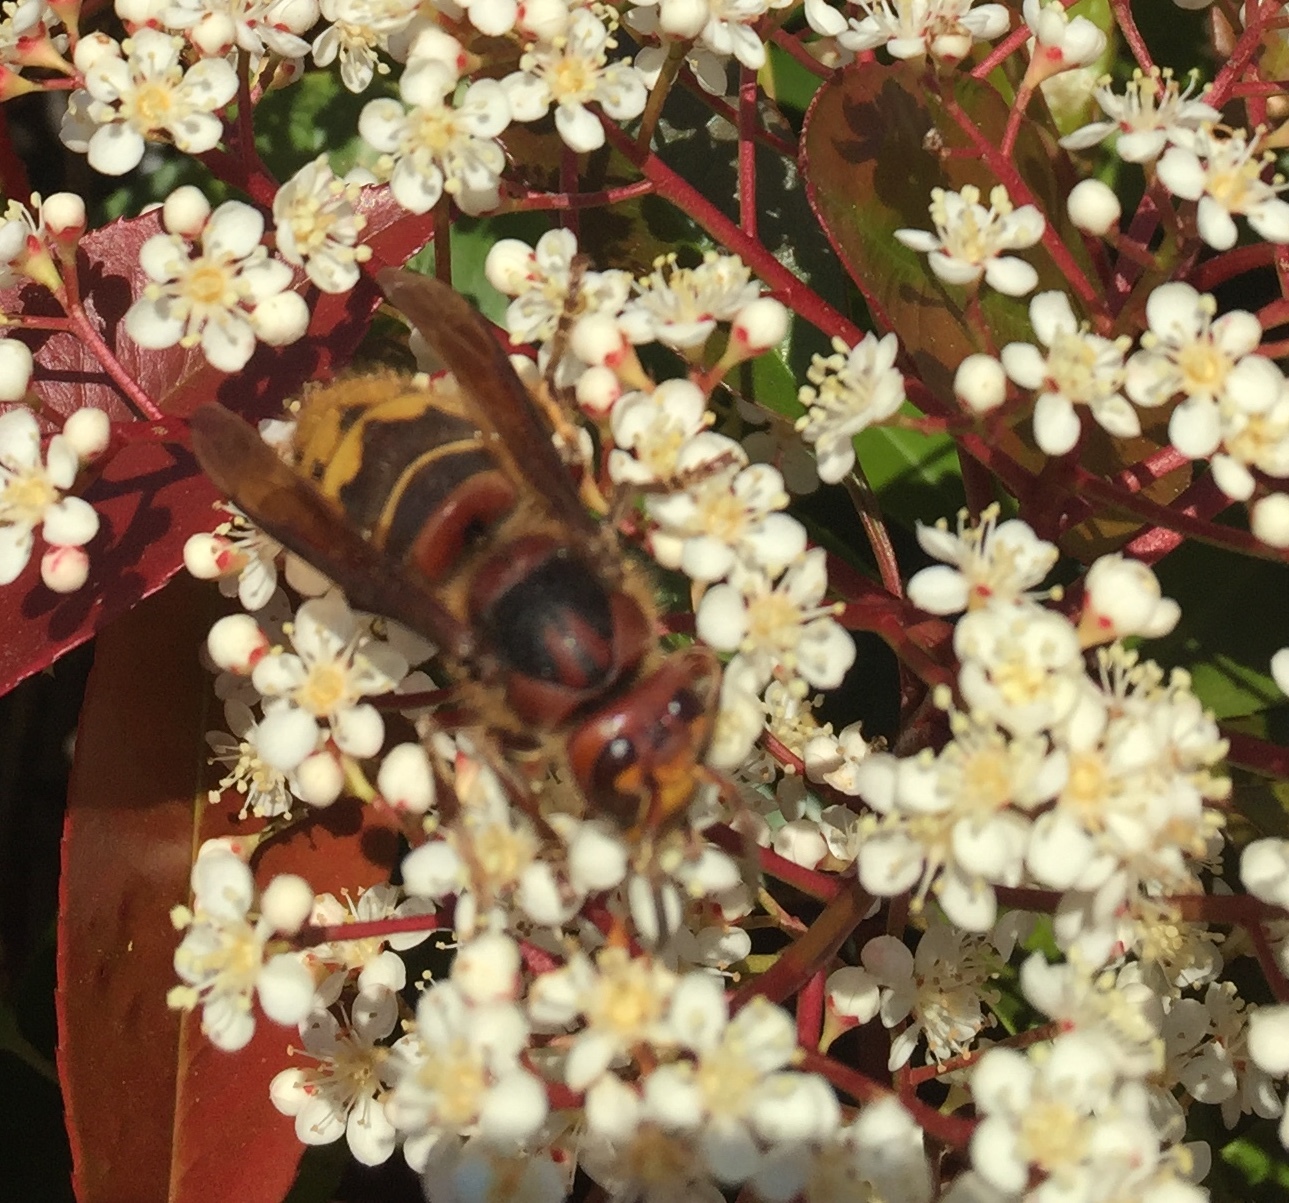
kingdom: Animalia
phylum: Arthropoda
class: Insecta
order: Hymenoptera
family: Vespidae
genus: Vespa
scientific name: Vespa crabro
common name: Hornet
